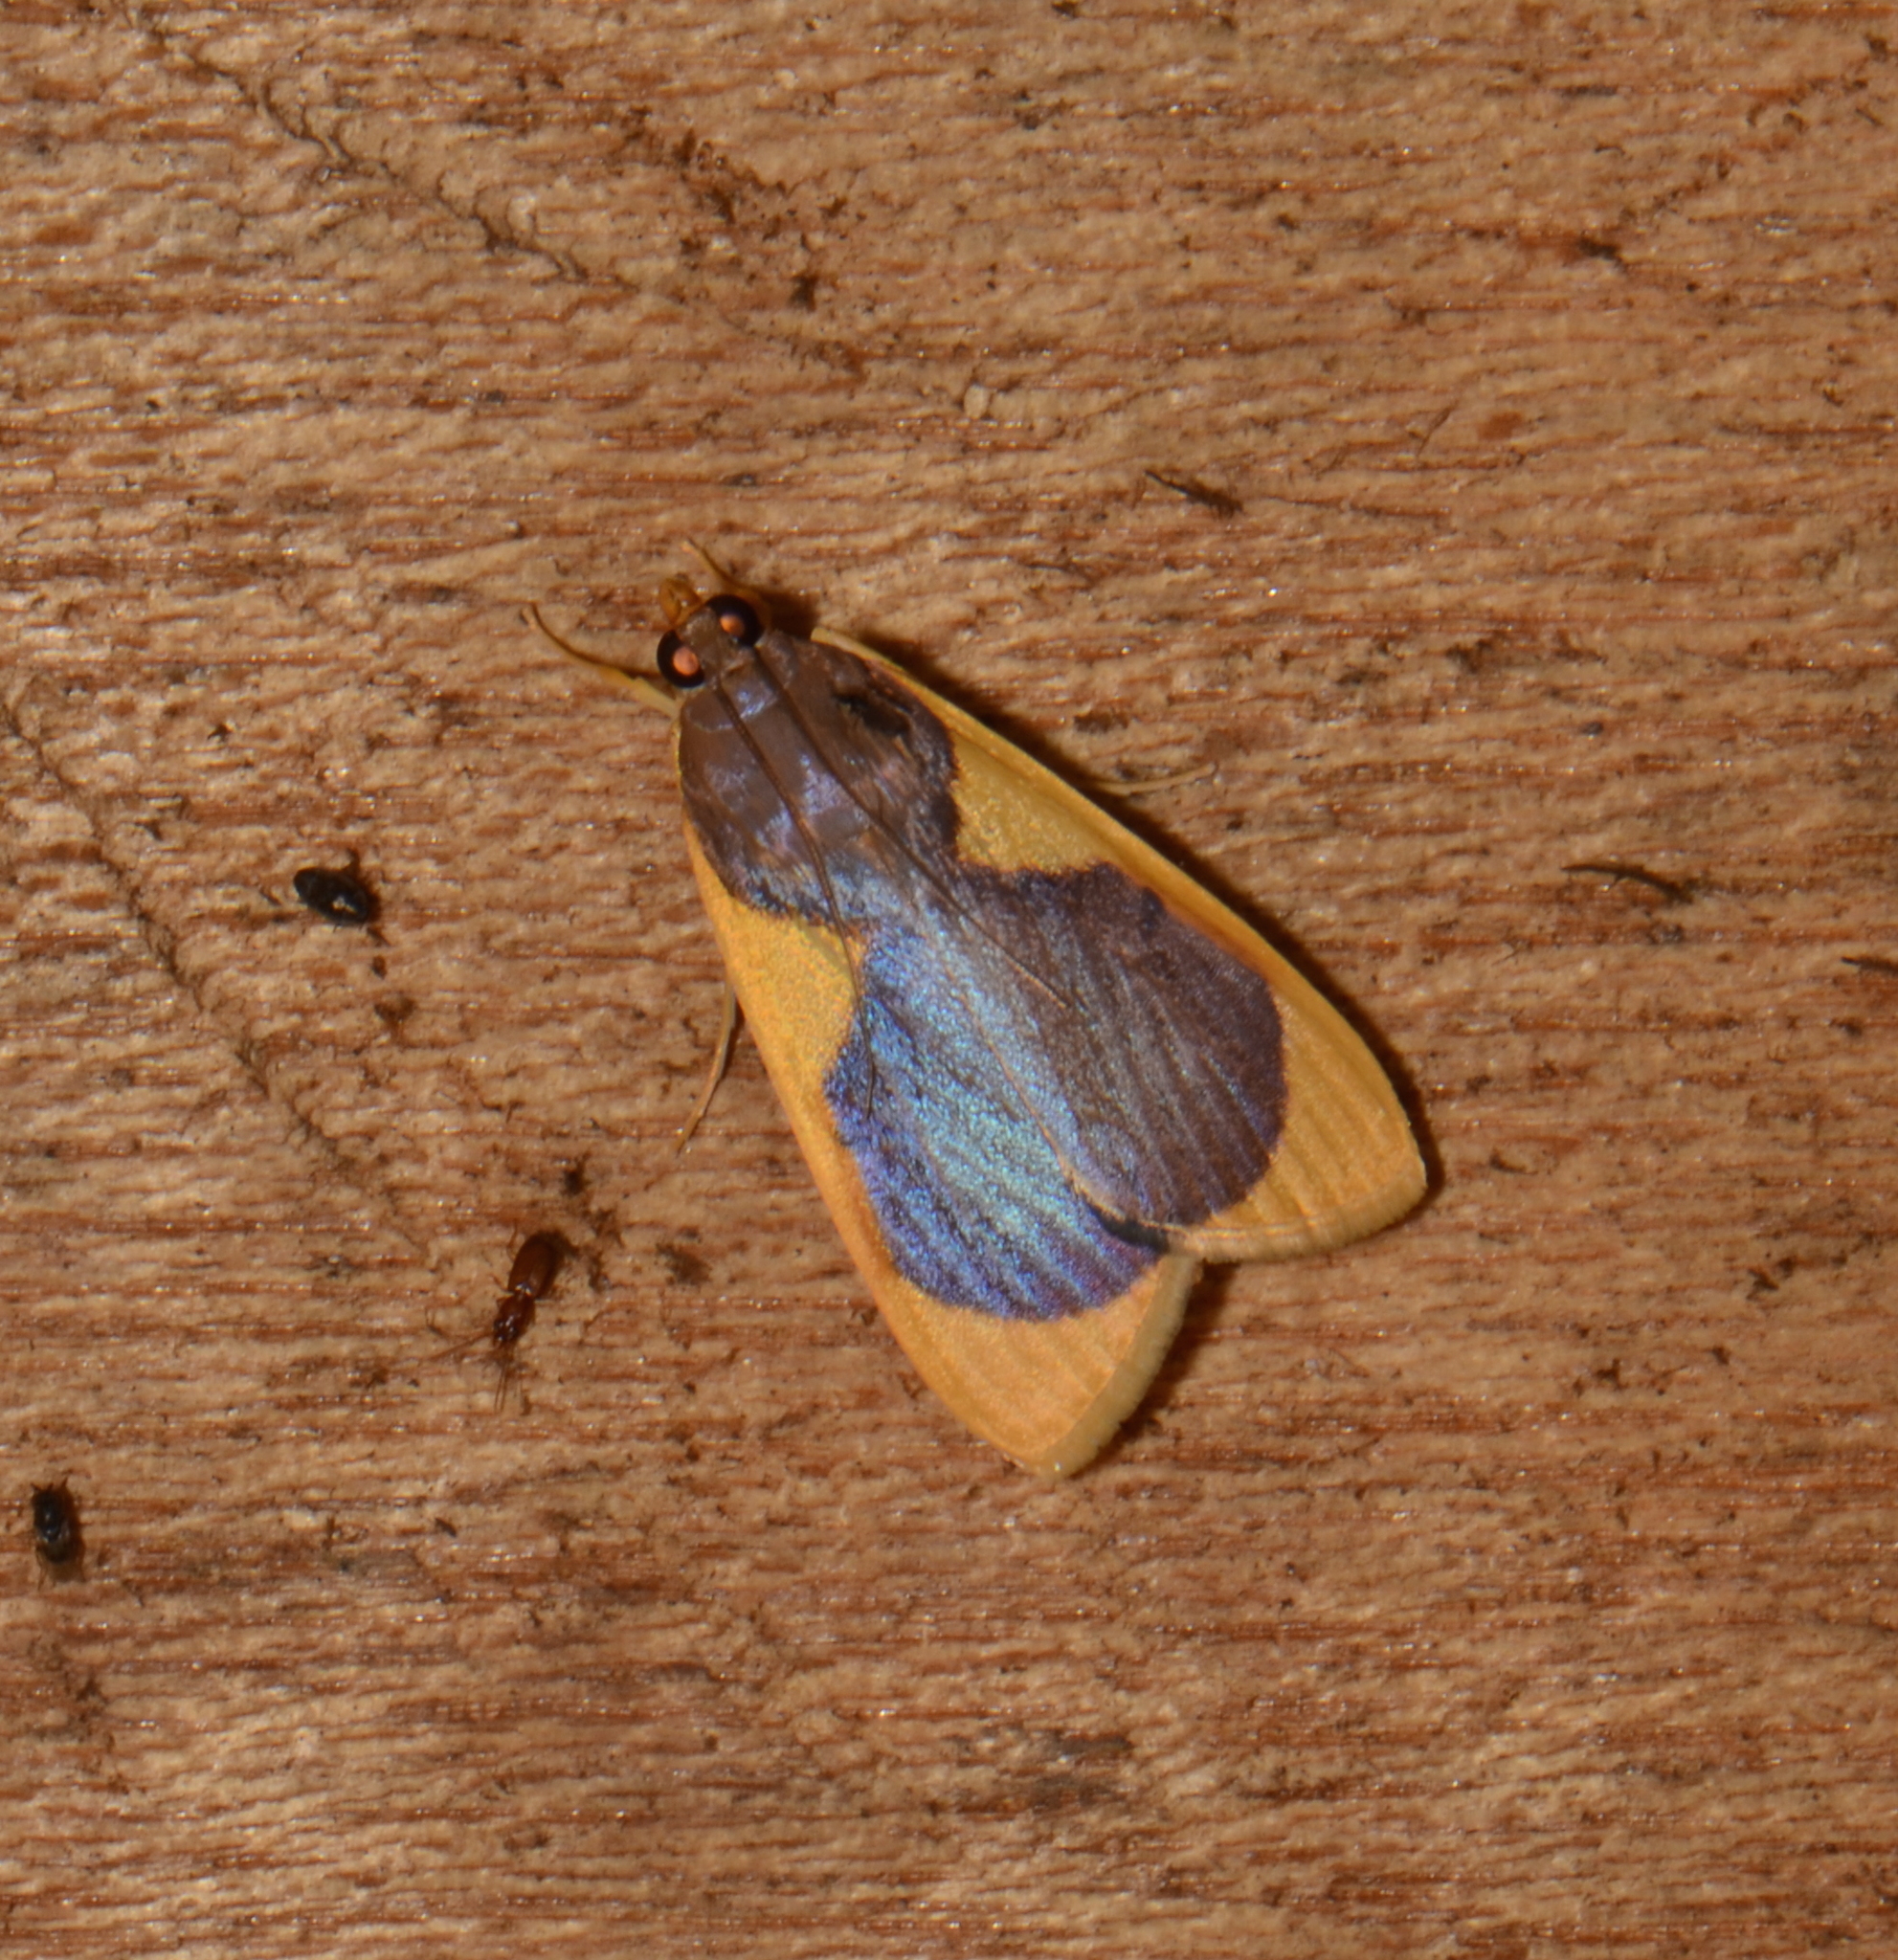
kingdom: Animalia
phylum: Arthropoda
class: Insecta
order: Lepidoptera
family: Crambidae
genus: Prooedema
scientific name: Prooedema inscisalis
